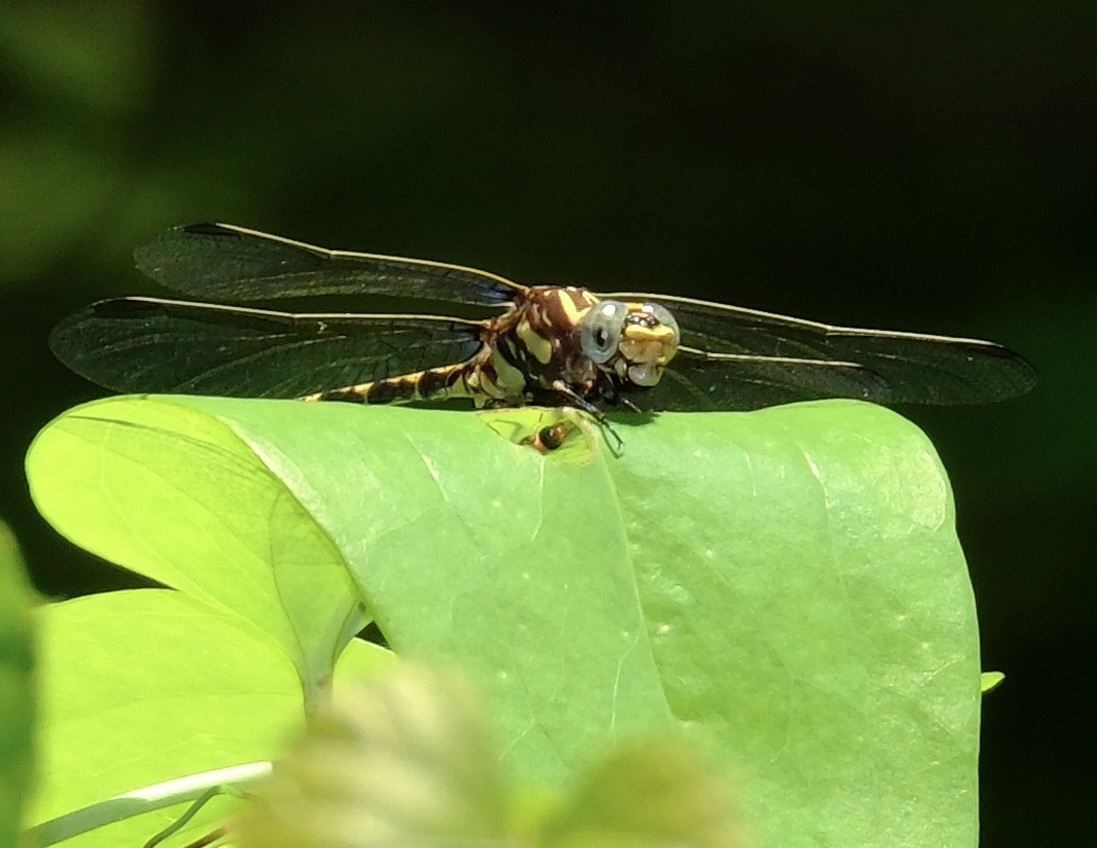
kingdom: Animalia
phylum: Arthropoda
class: Insecta
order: Odonata
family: Gomphidae
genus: Progomphus
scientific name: Progomphus obscurus
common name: Common sanddragon
